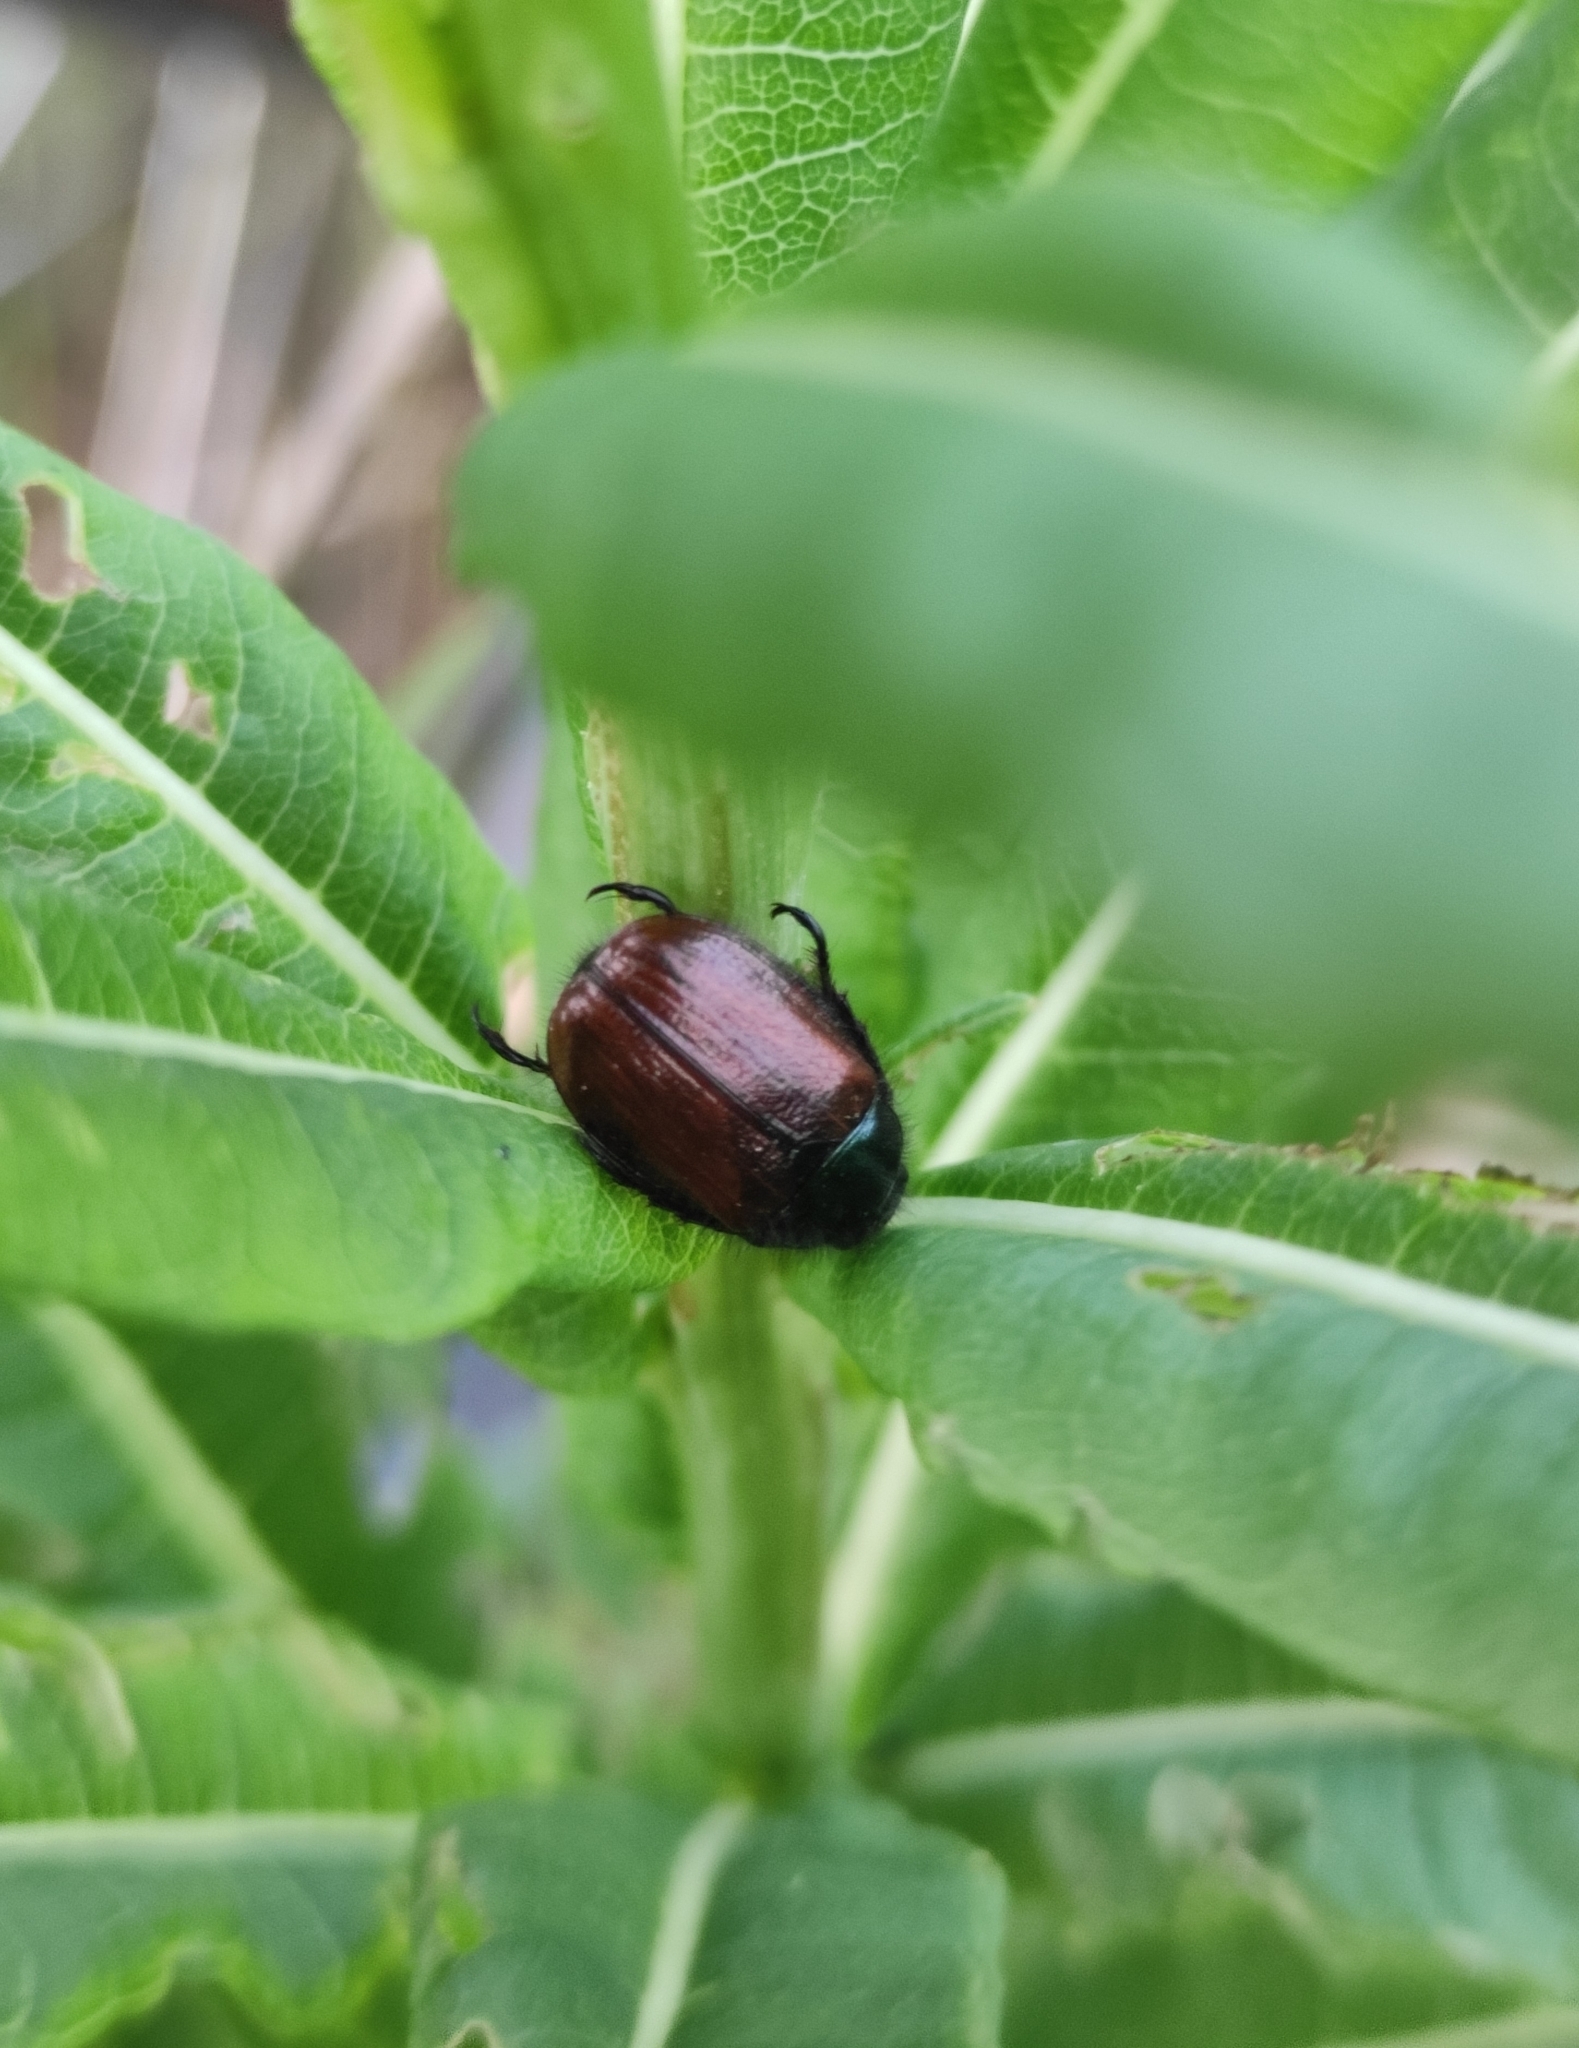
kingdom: Animalia
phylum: Arthropoda
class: Insecta
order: Coleoptera
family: Scarabaeidae
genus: Phyllopertha
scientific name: Phyllopertha horticola
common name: Garden chafer
